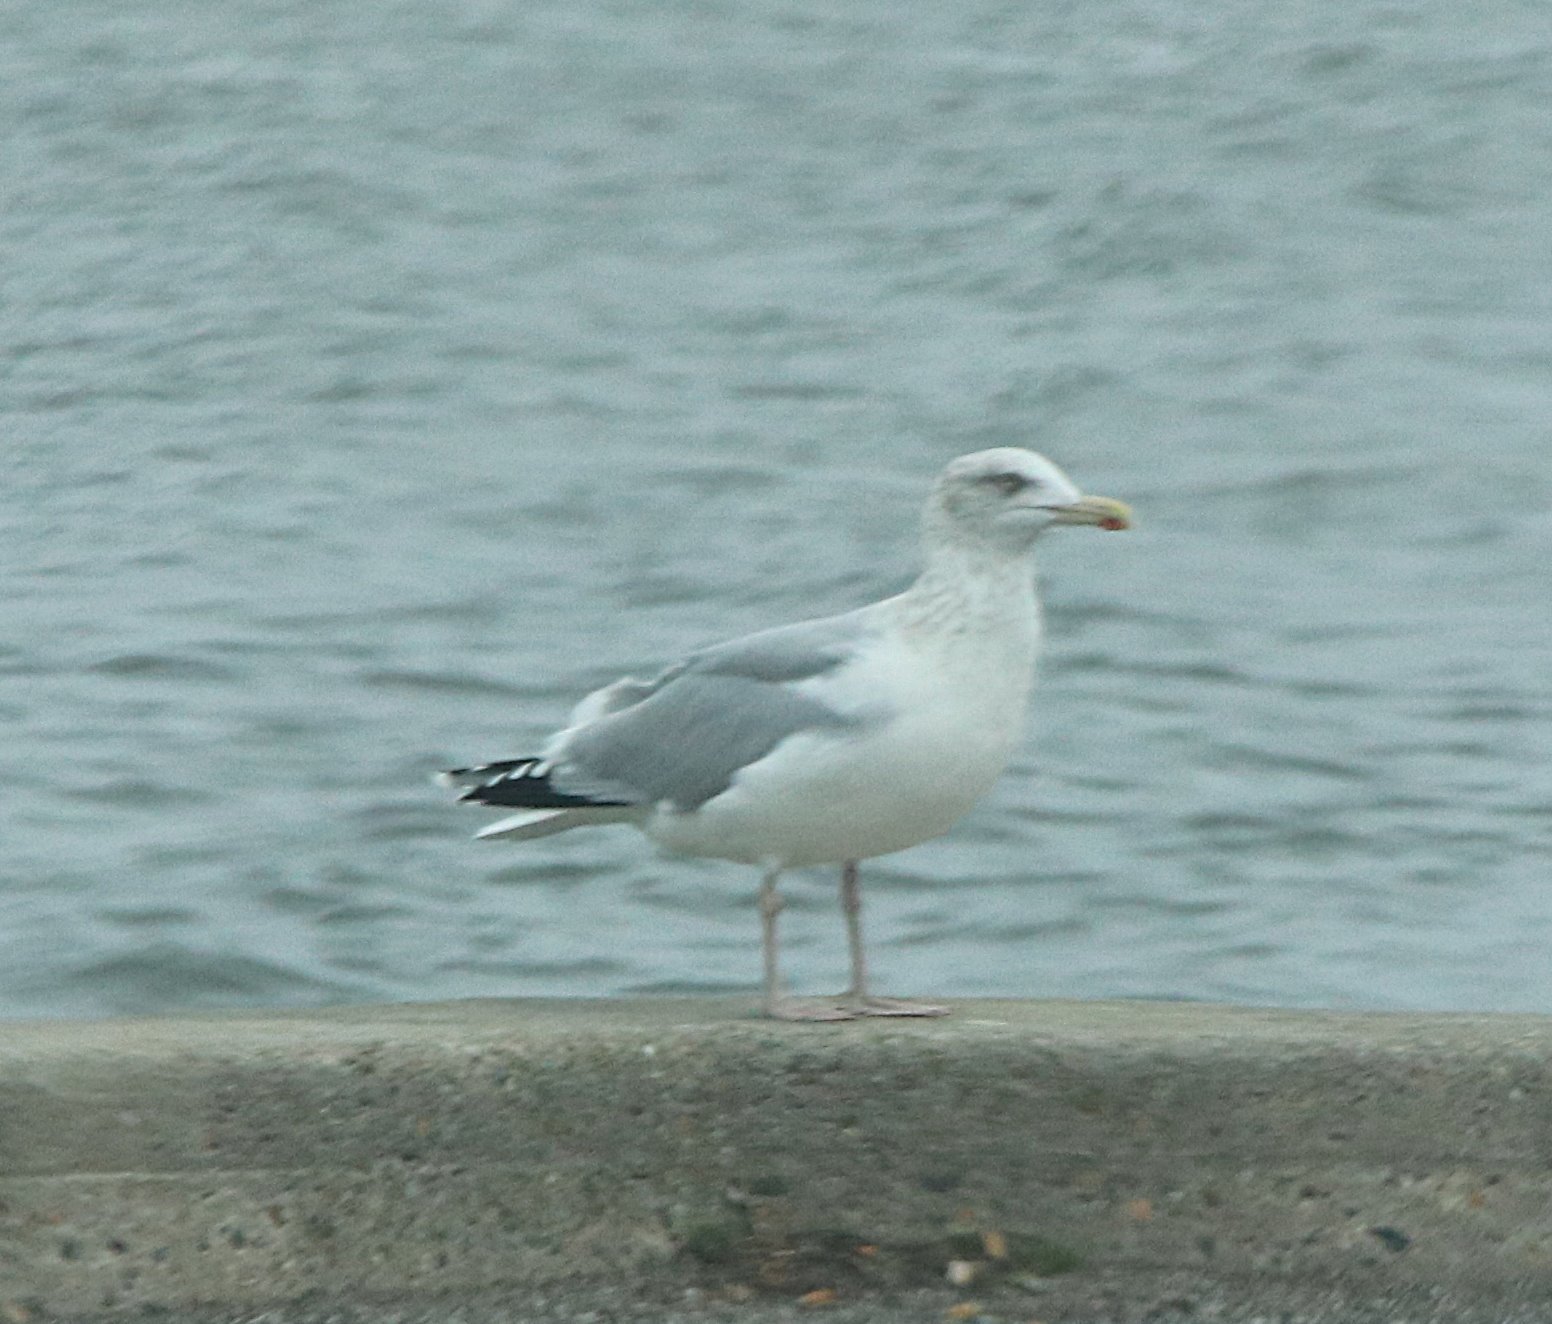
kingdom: Animalia
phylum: Chordata
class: Aves
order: Charadriiformes
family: Laridae
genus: Larus
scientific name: Larus argentatus
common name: Herring gull
